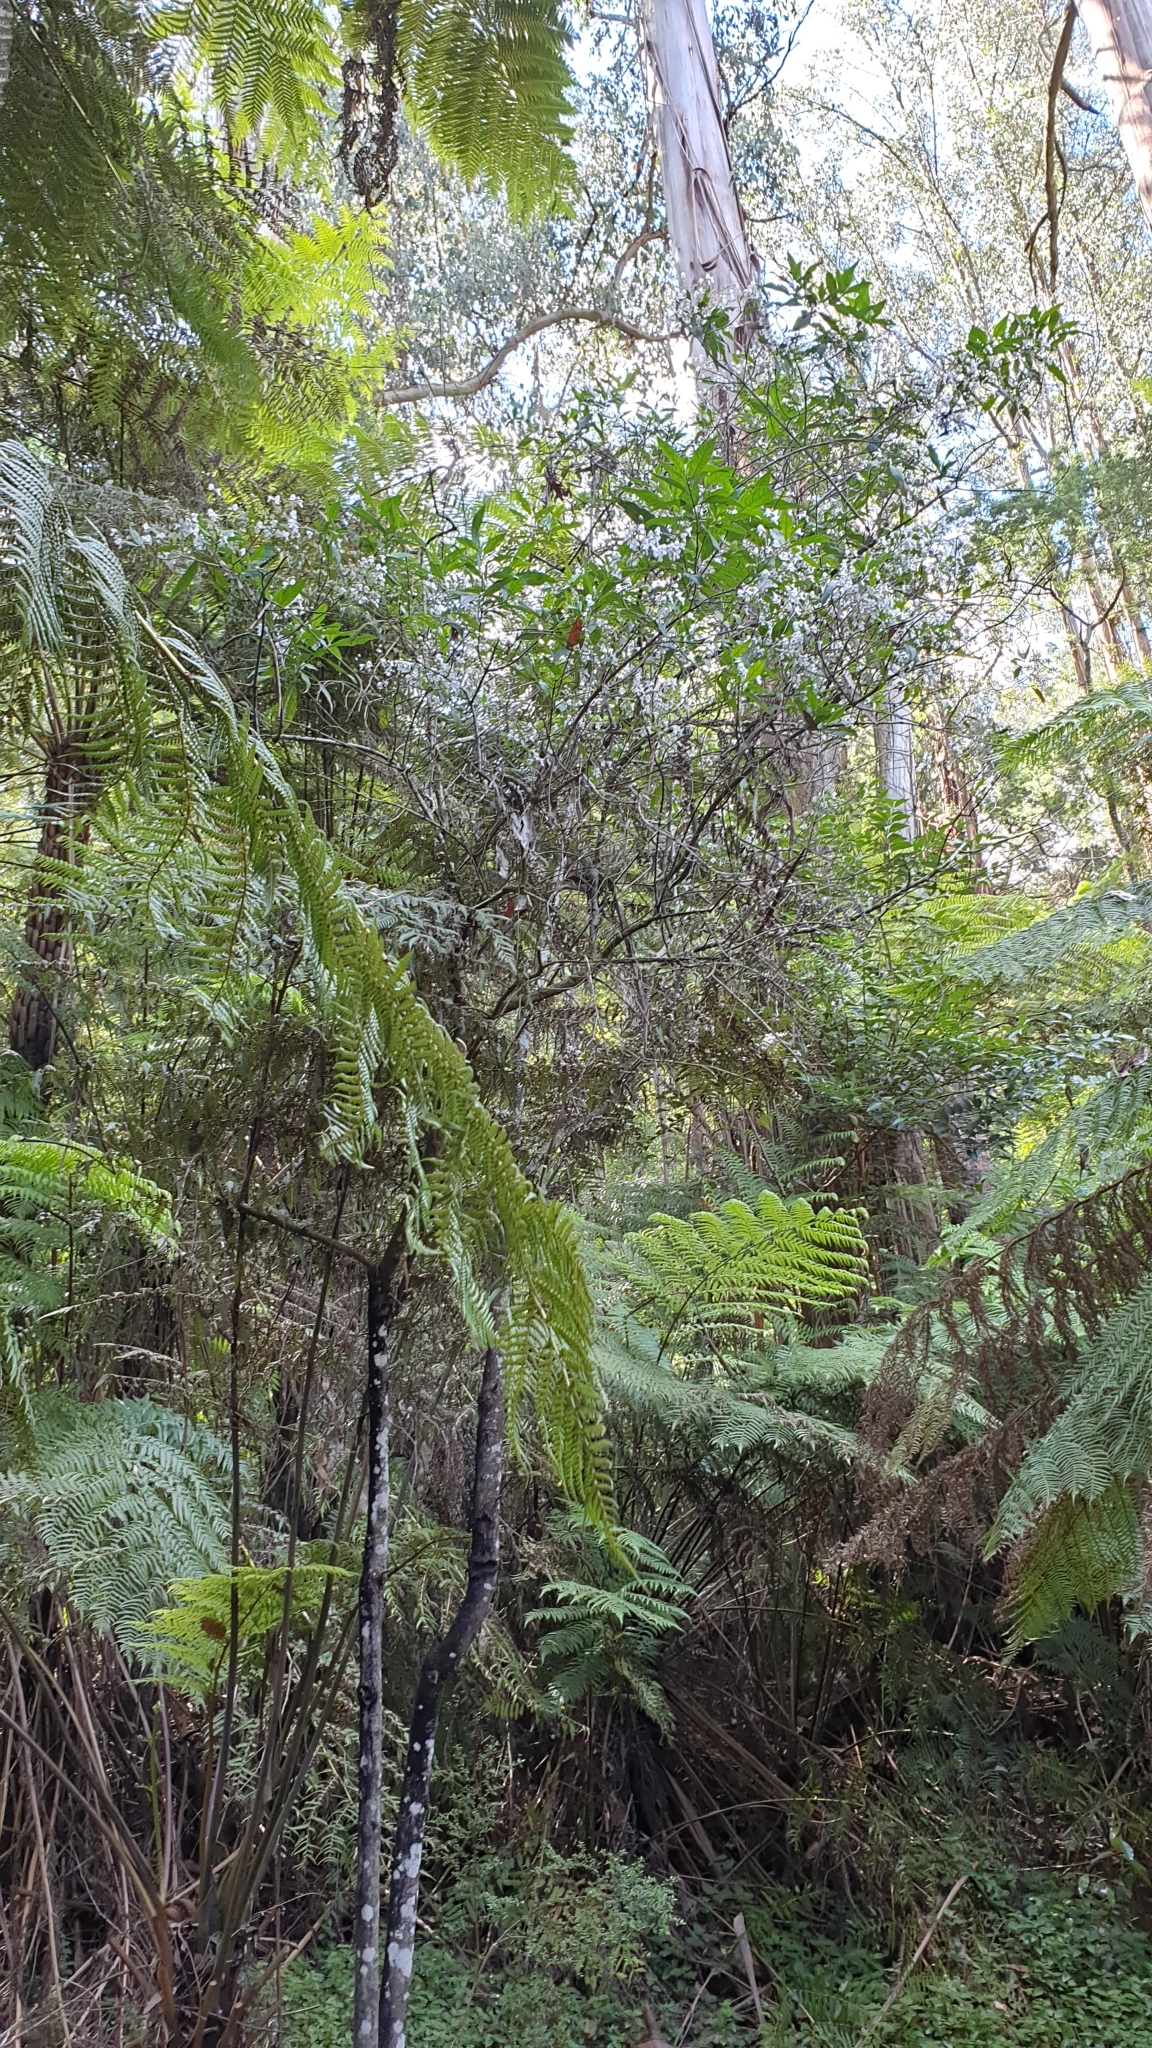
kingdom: Plantae
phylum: Tracheophyta
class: Magnoliopsida
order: Lamiales
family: Lamiaceae
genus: Prostanthera
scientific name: Prostanthera lasianthos
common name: Mountain-lilac
